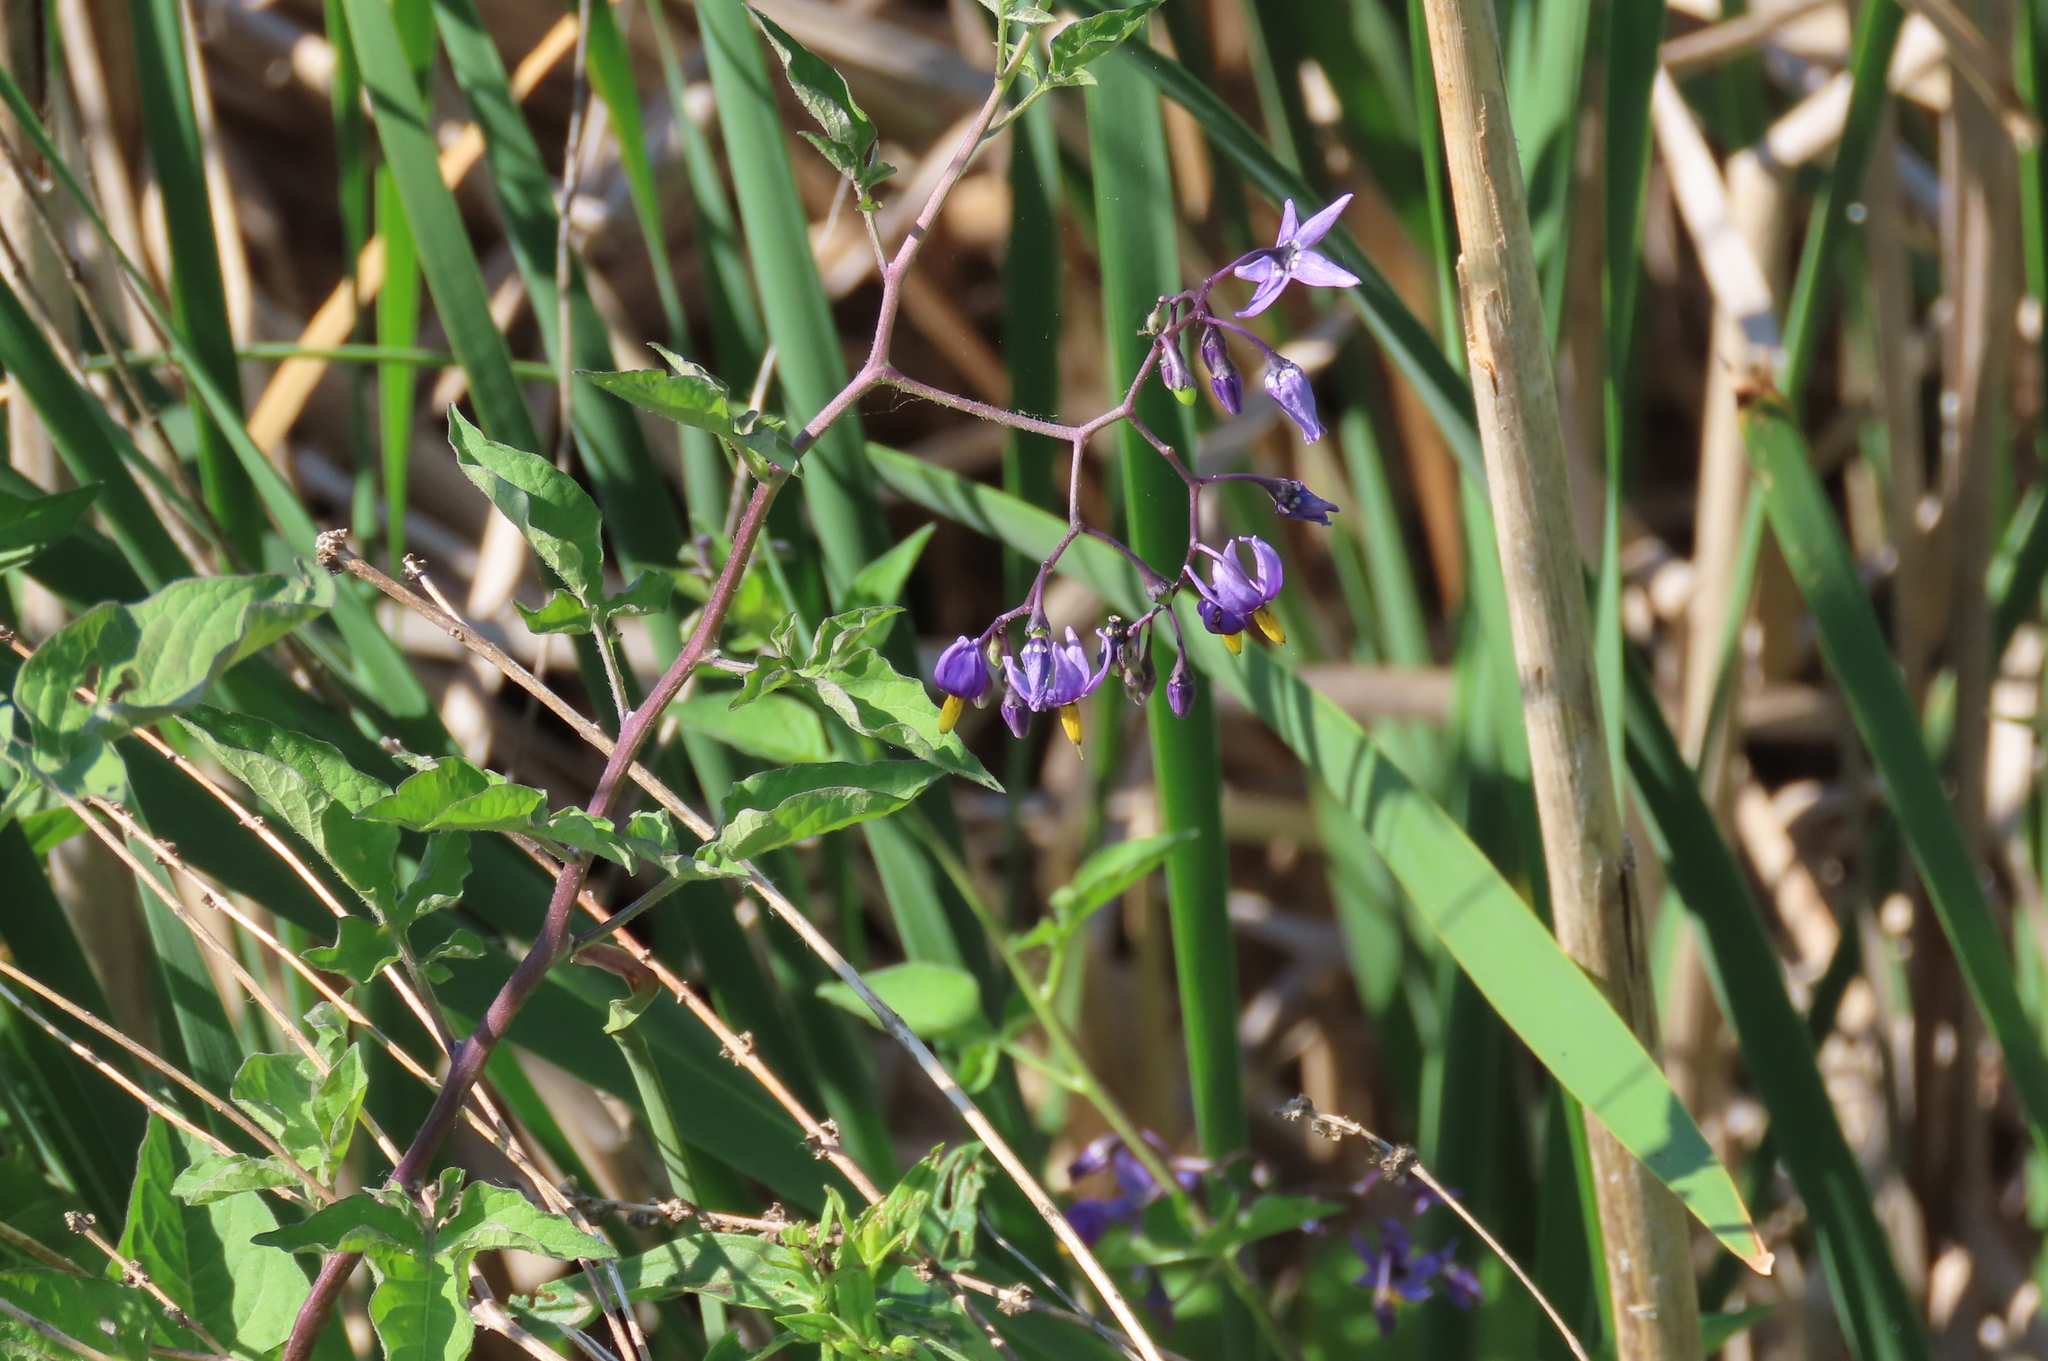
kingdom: Plantae
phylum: Tracheophyta
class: Magnoliopsida
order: Solanales
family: Solanaceae
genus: Solanum
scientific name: Solanum dulcamara
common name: Climbing nightshade
